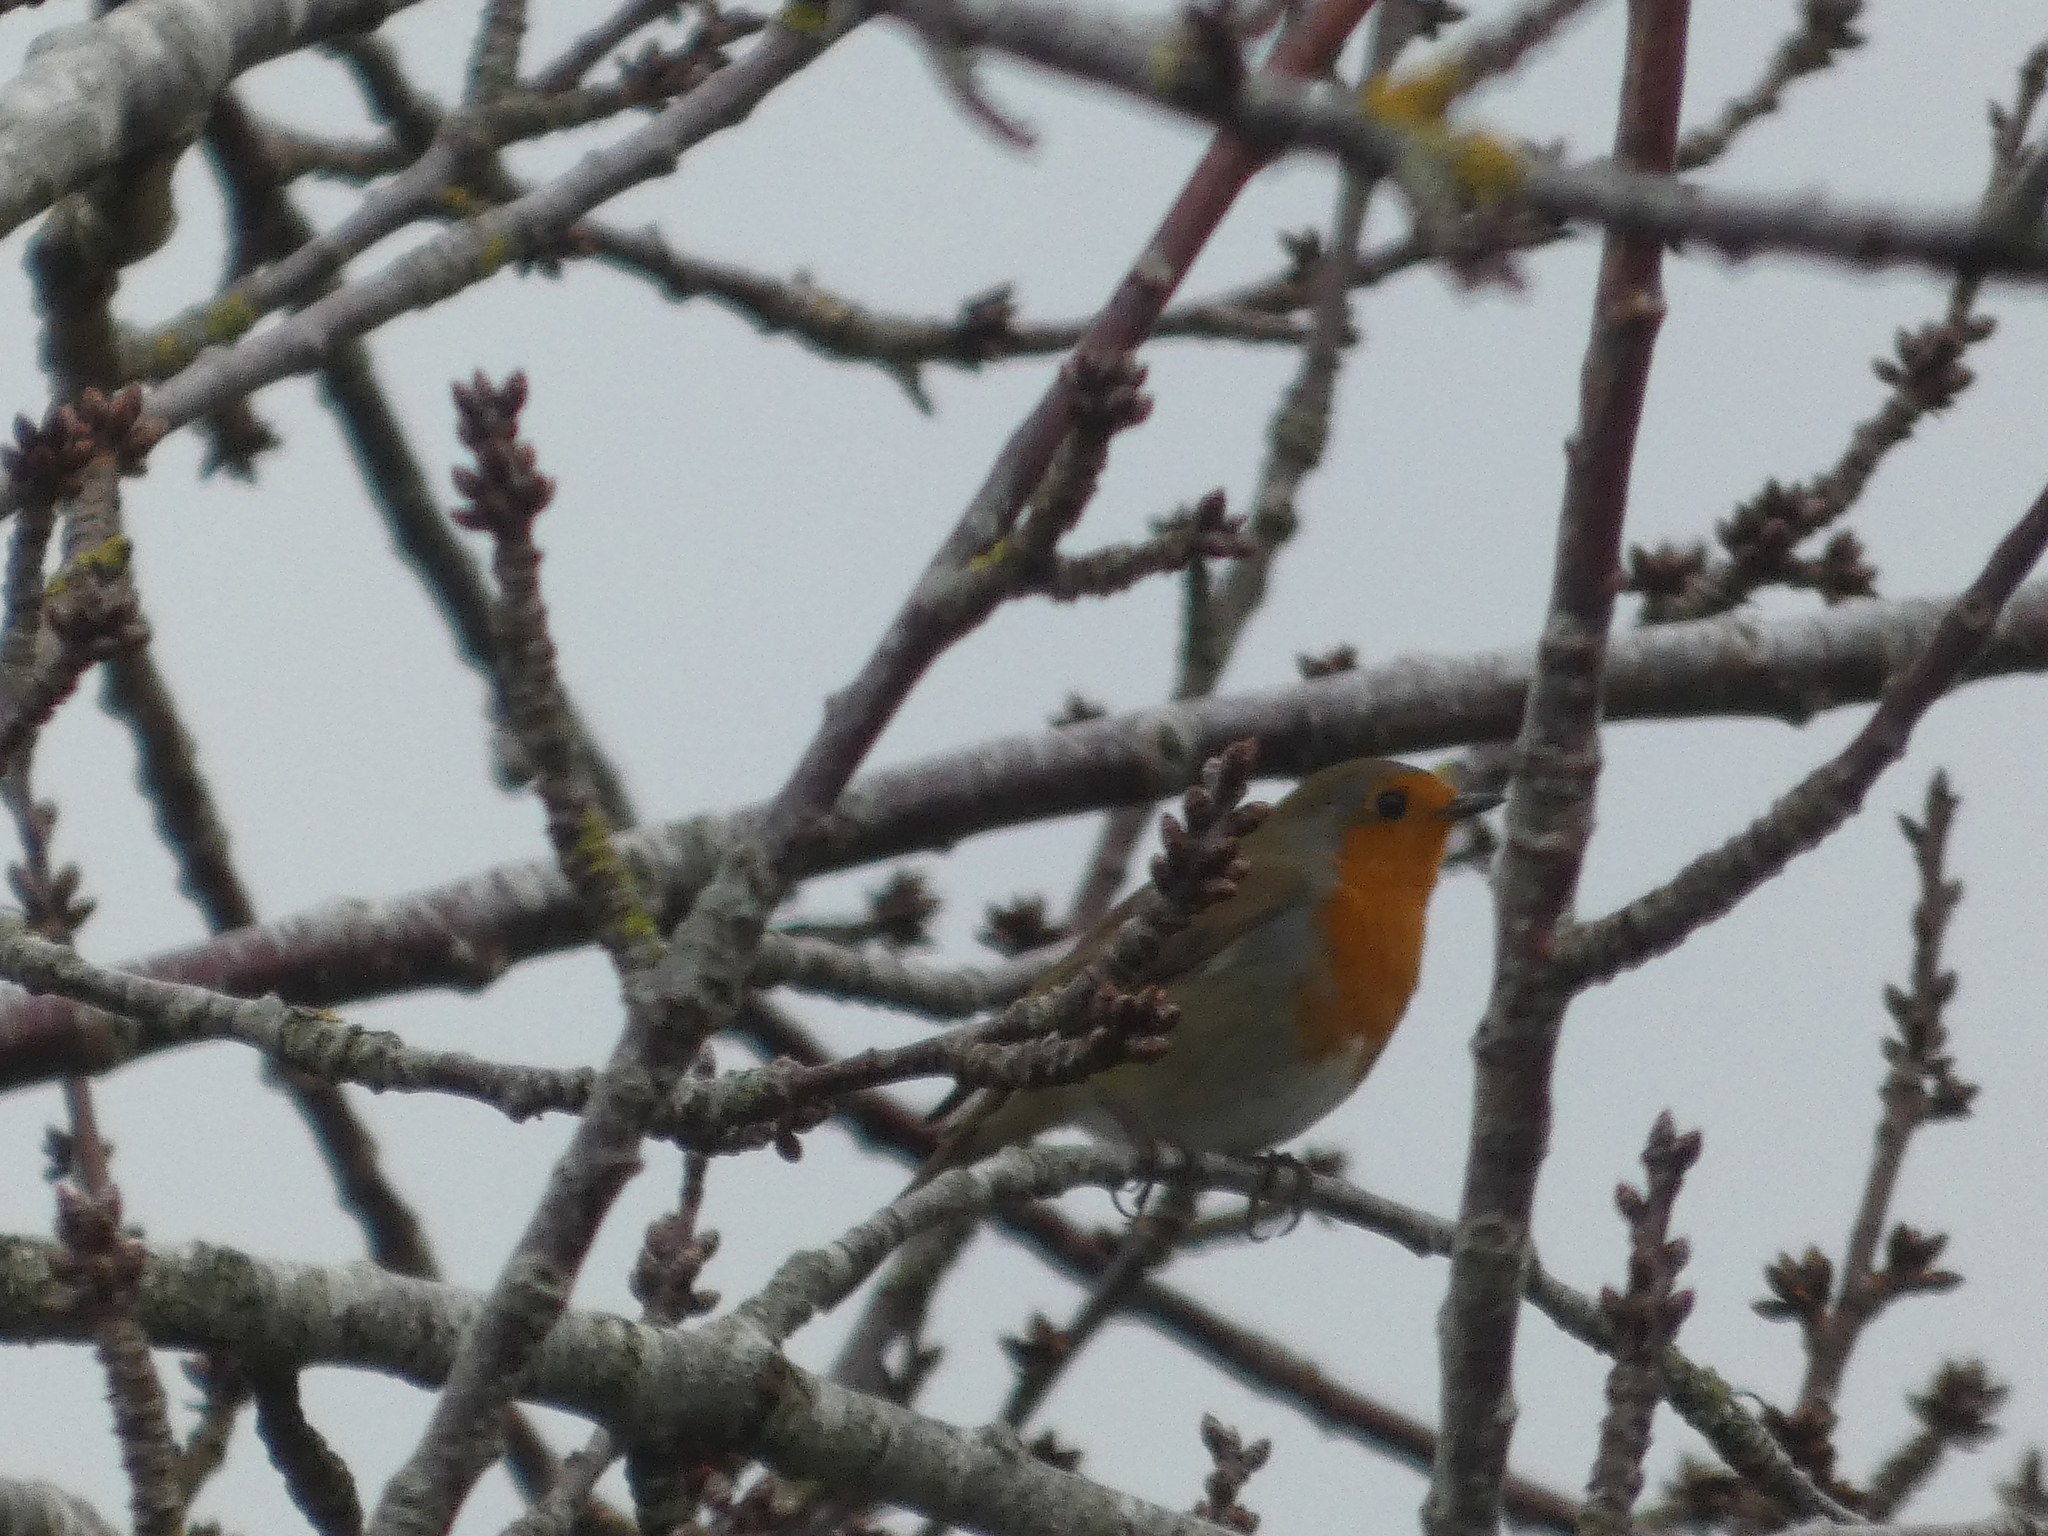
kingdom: Animalia
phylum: Chordata
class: Aves
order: Passeriformes
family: Muscicapidae
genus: Erithacus
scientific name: Erithacus rubecula
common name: European robin
